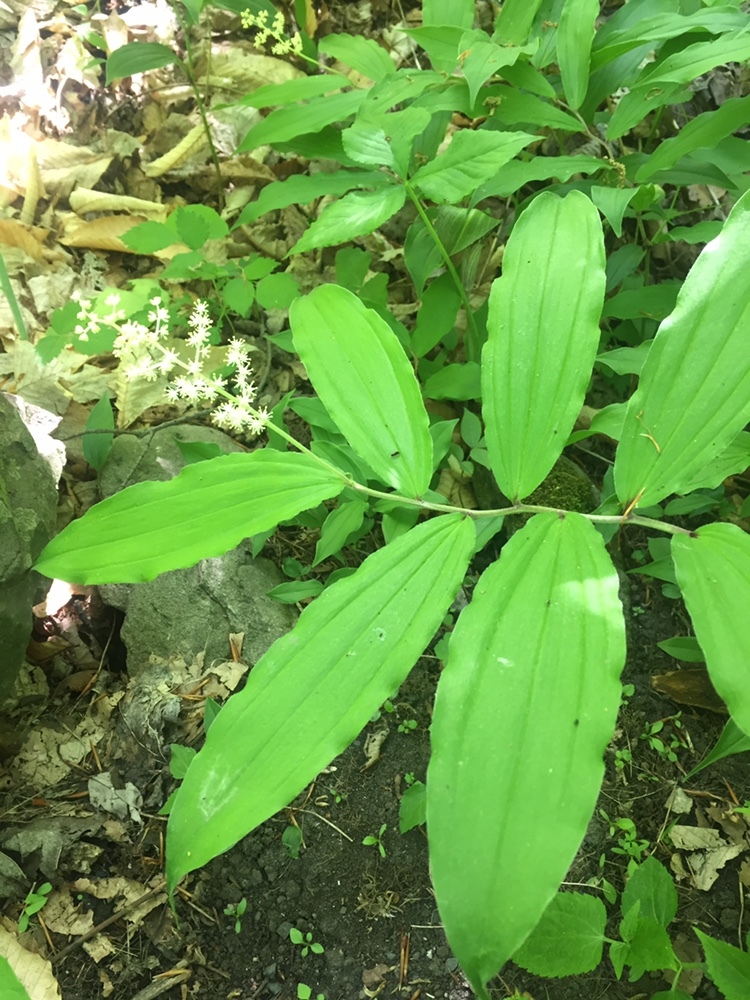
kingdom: Plantae
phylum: Tracheophyta
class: Liliopsida
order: Asparagales
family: Asparagaceae
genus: Maianthemum
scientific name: Maianthemum racemosum
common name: False spikenard
